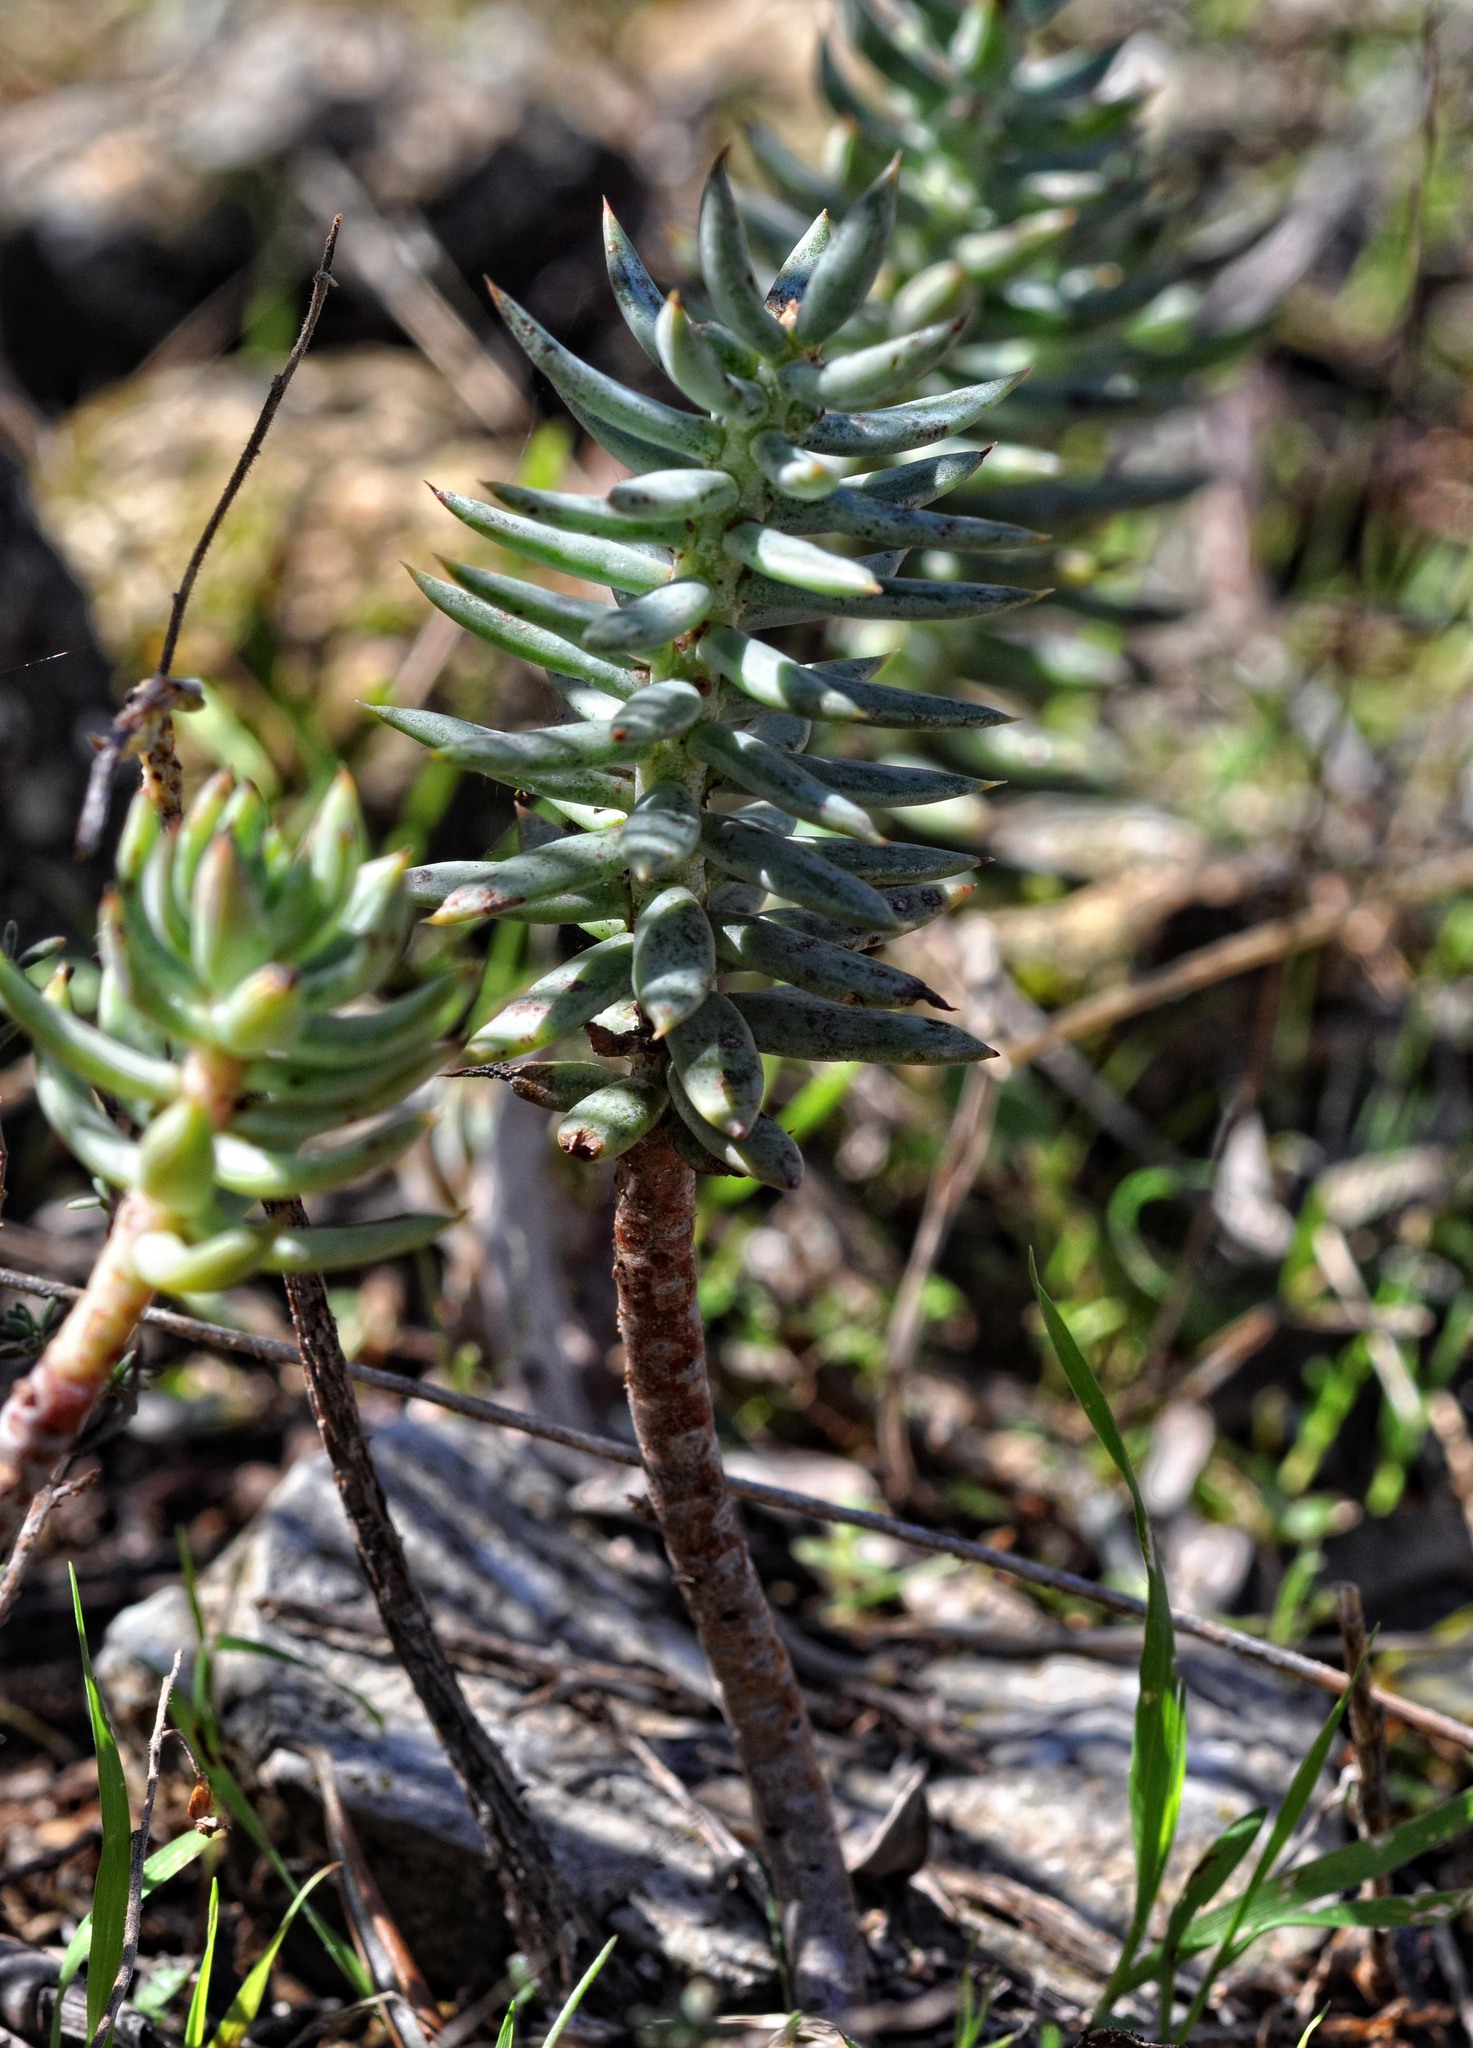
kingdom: Plantae
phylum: Tracheophyta
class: Magnoliopsida
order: Saxifragales
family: Crassulaceae
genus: Petrosedum
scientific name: Petrosedum sediforme
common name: Pale stonecrop
